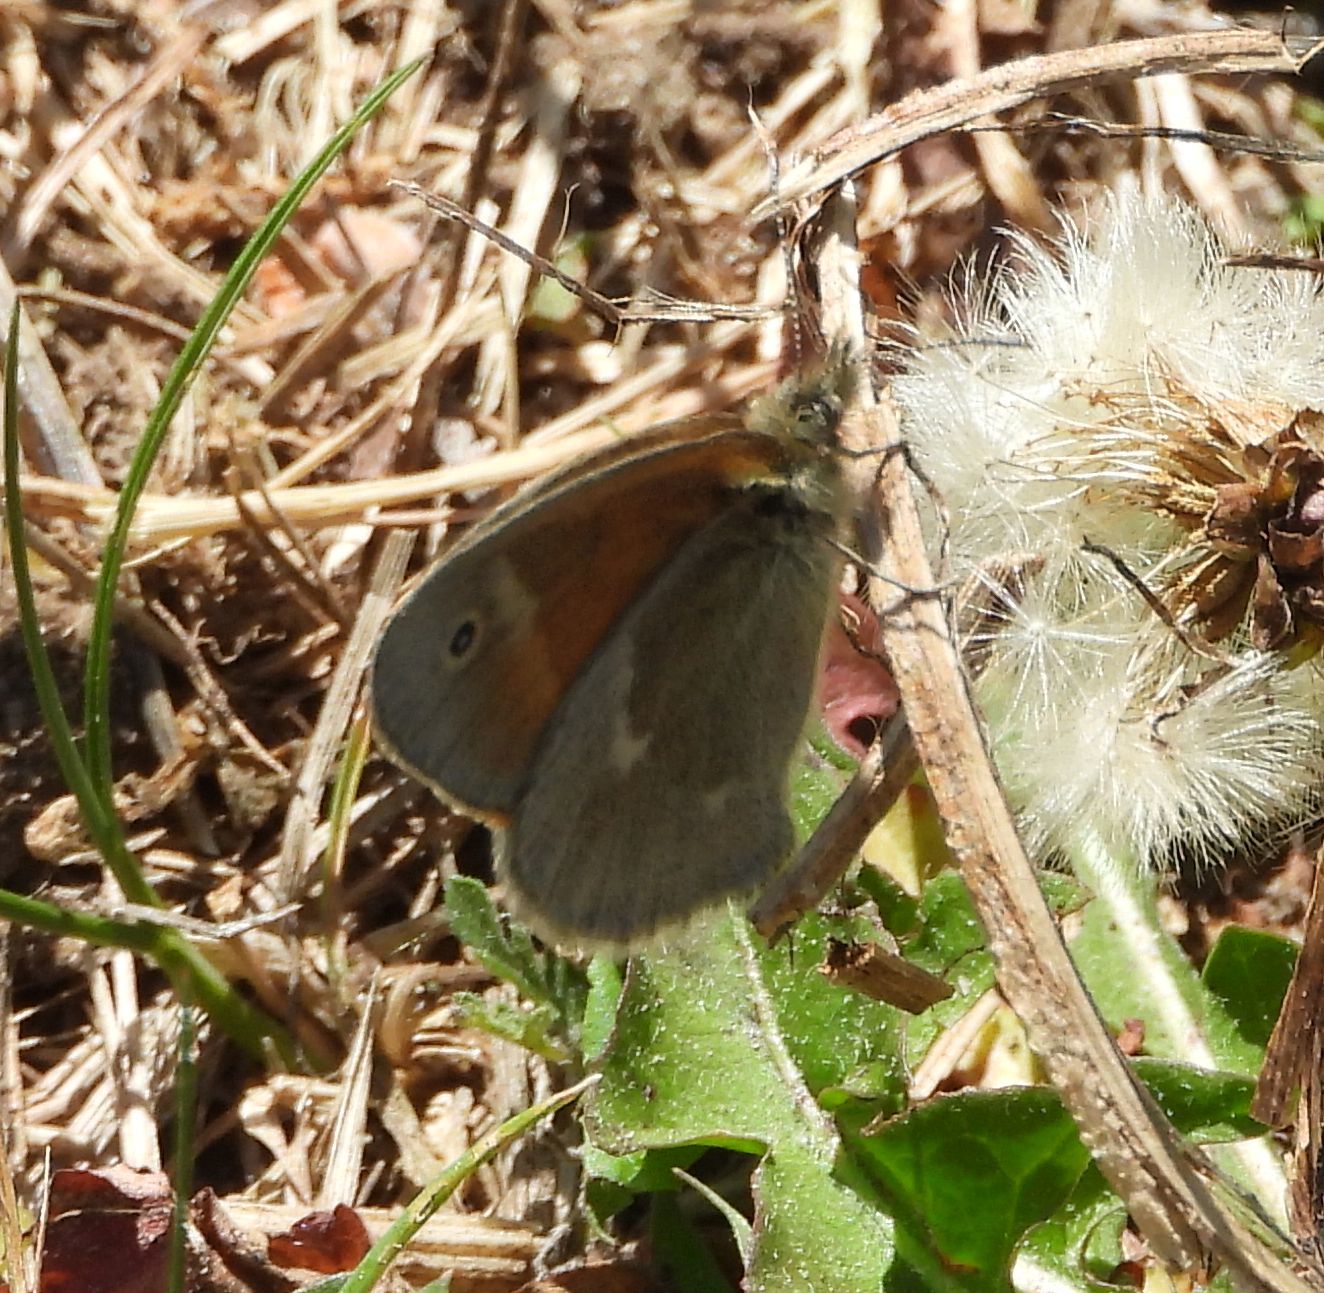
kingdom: Animalia
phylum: Arthropoda
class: Insecta
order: Lepidoptera
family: Nymphalidae
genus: Coenonympha
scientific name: Coenonympha california
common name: Common ringlet
